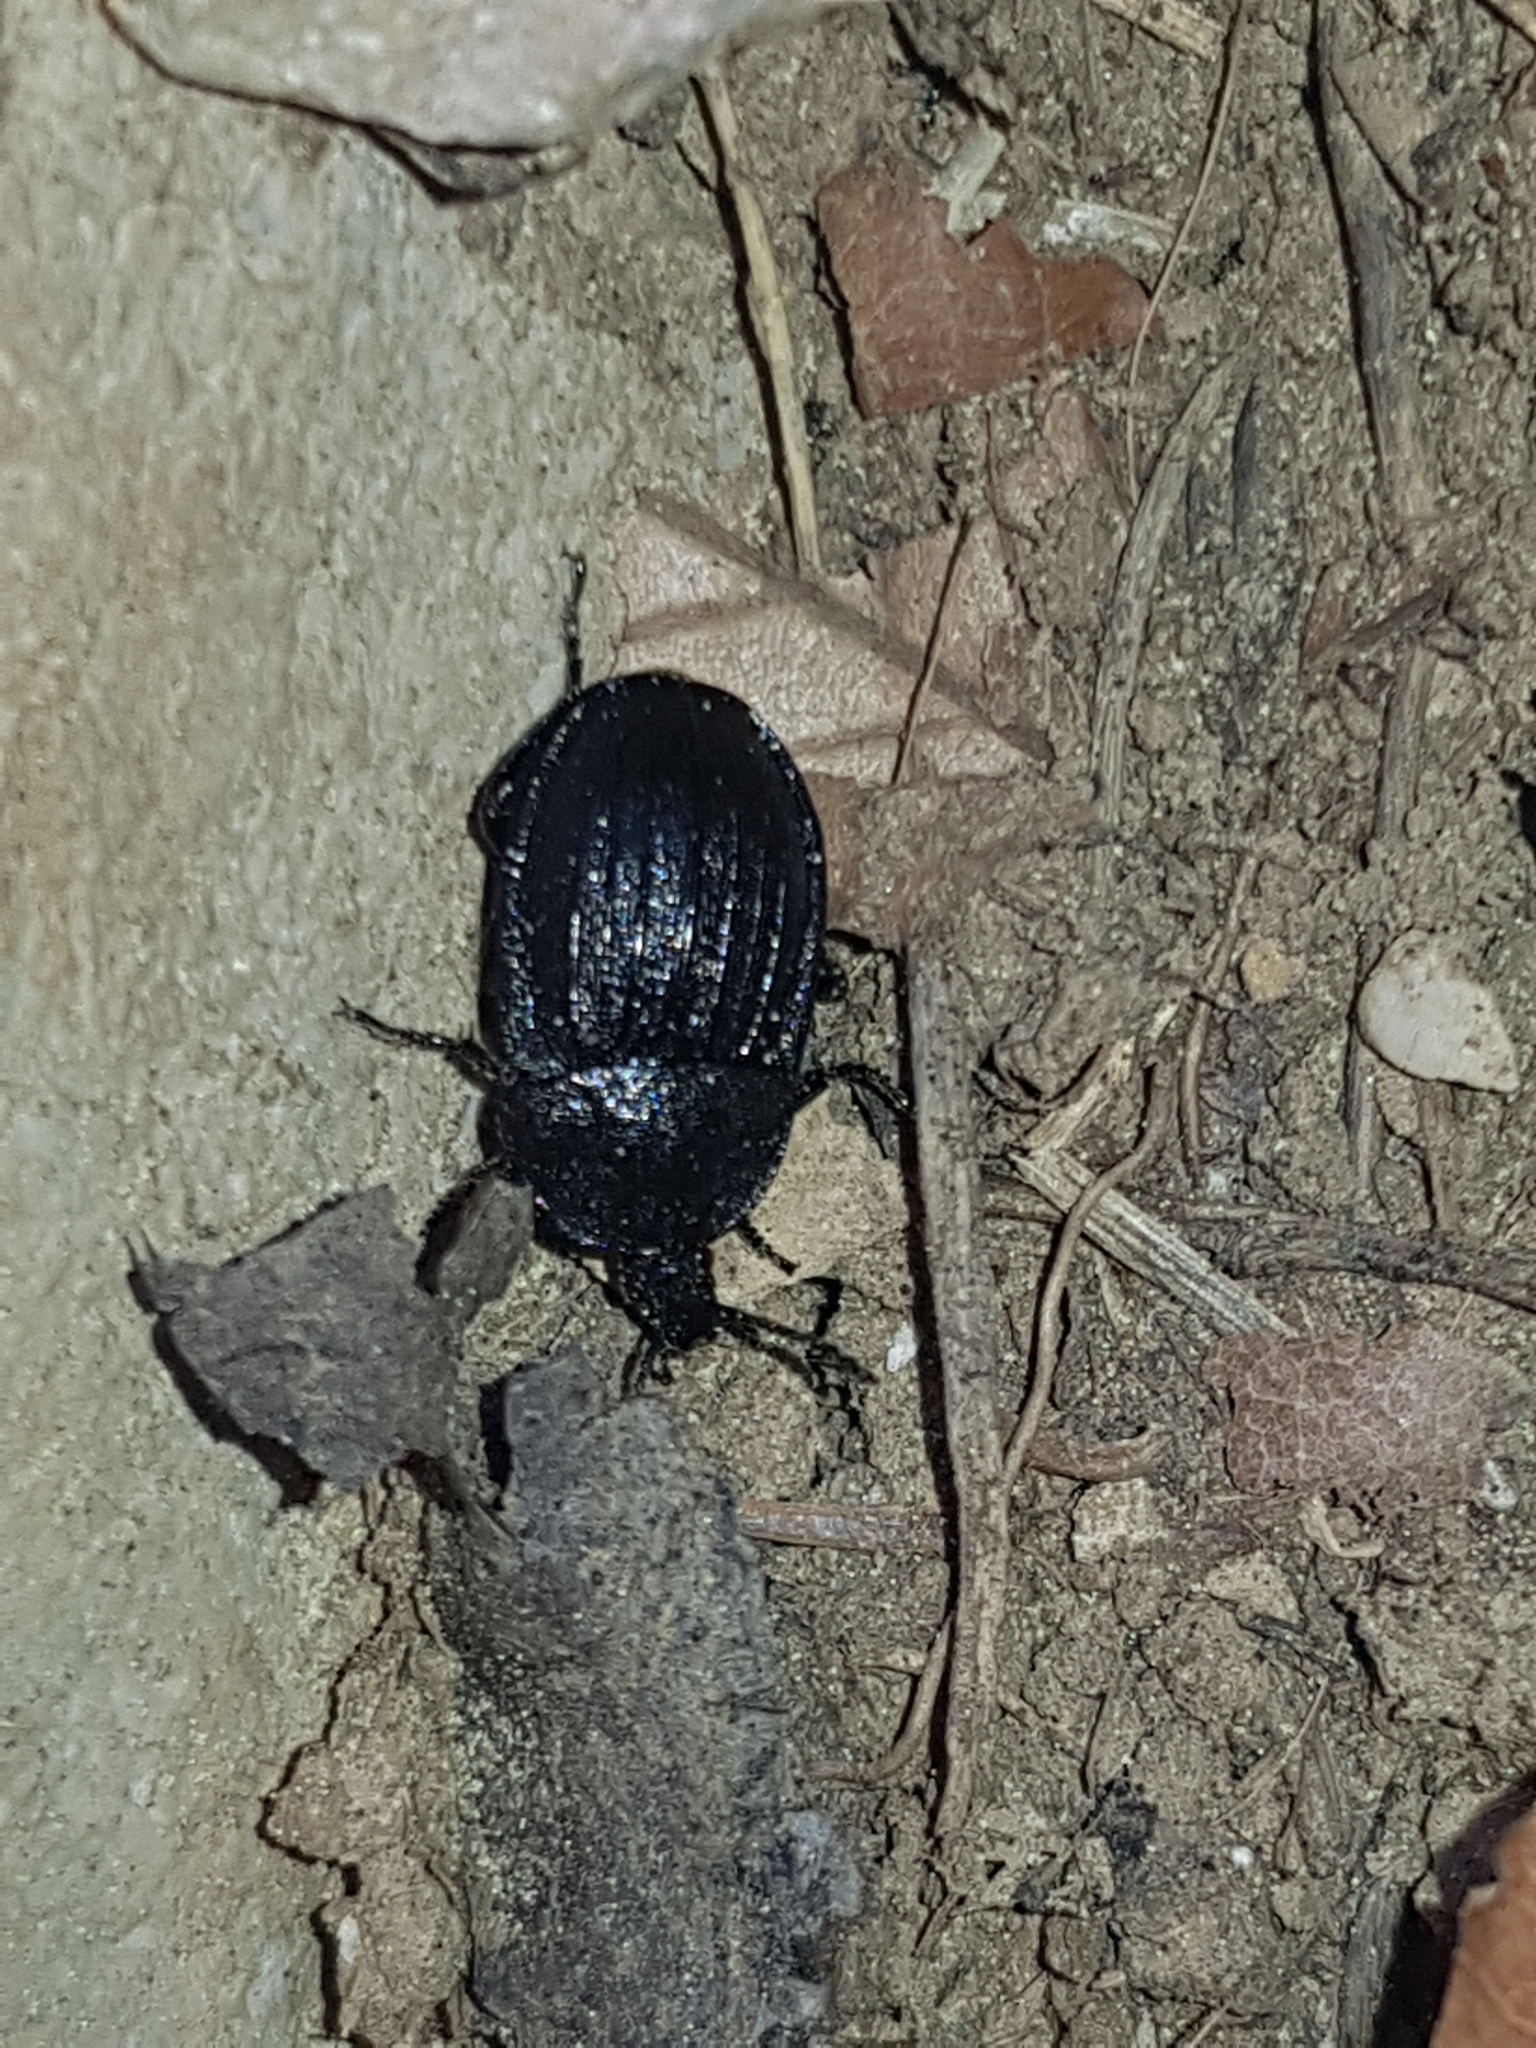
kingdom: Animalia
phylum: Arthropoda
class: Insecta
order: Coleoptera
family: Staphylinidae
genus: Silpha
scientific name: Silpha atrata
